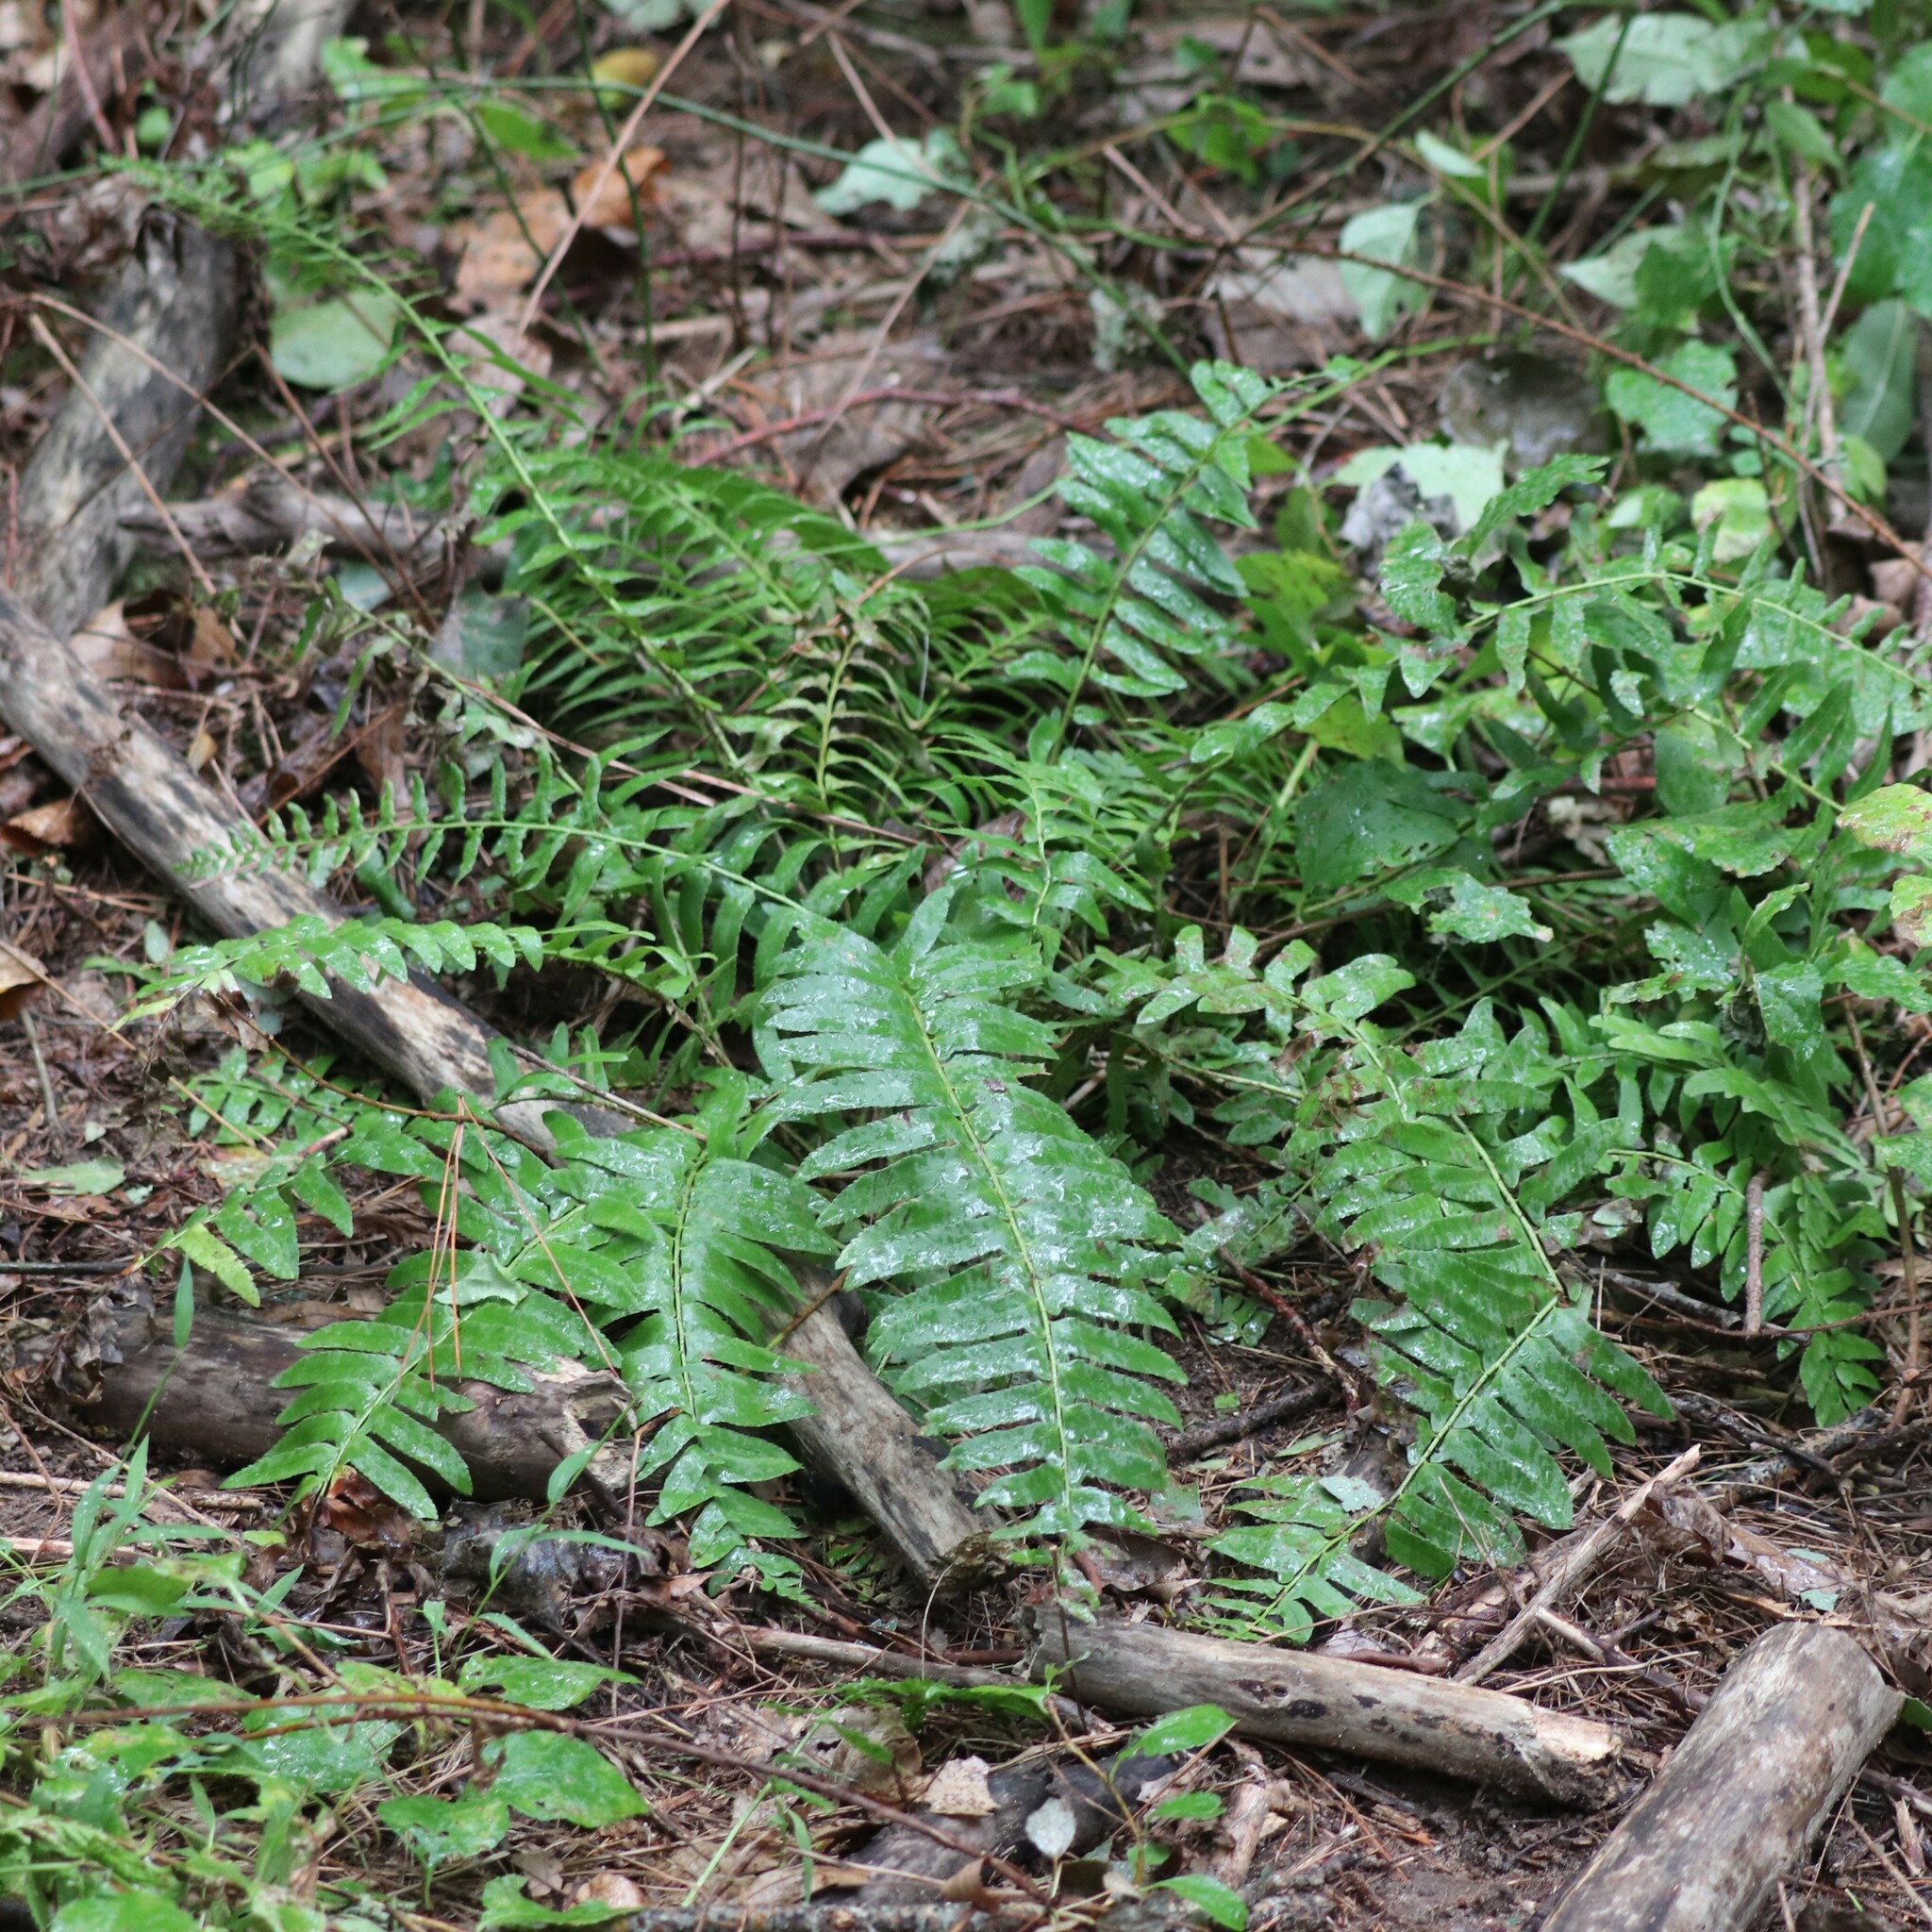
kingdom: Plantae
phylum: Tracheophyta
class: Polypodiopsida
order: Polypodiales
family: Dryopteridaceae
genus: Polystichum
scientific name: Polystichum acrostichoides
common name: Christmas fern
